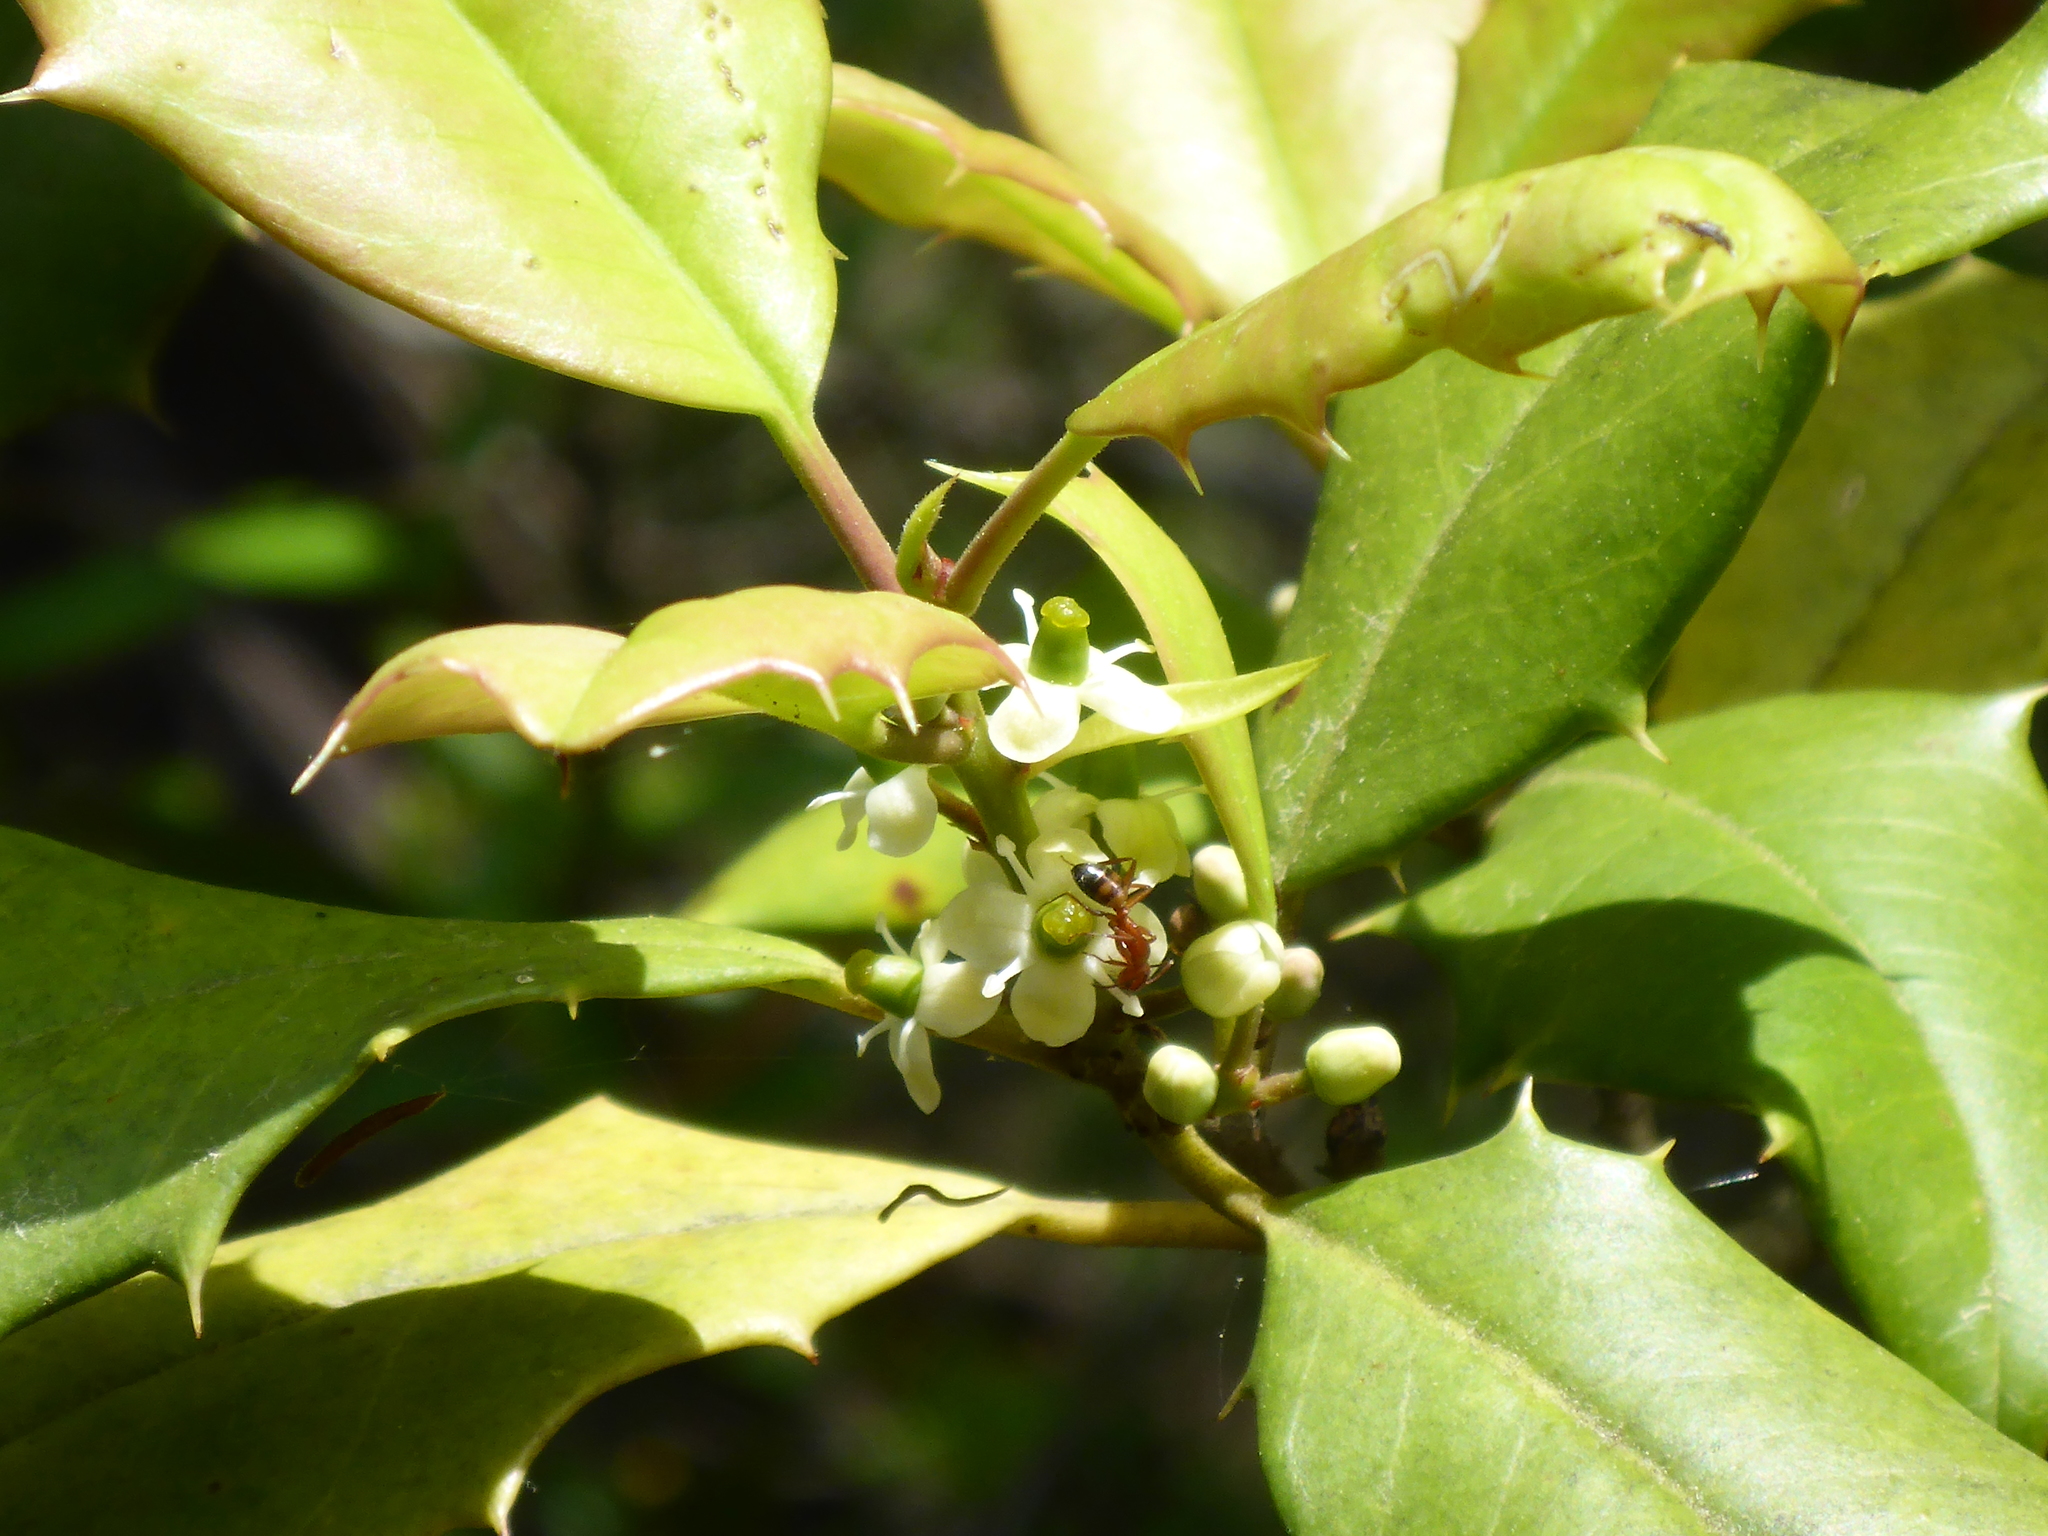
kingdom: Animalia
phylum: Arthropoda
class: Insecta
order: Hymenoptera
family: Formicidae
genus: Camponotus
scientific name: Camponotus snellingi
